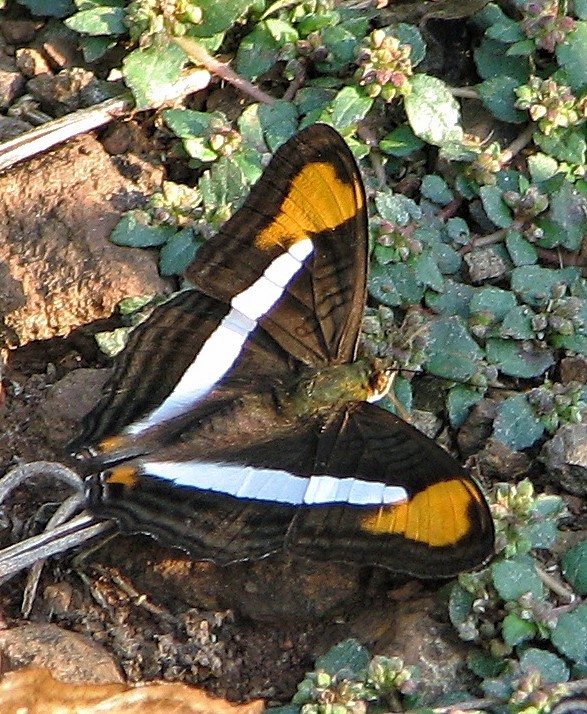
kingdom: Animalia
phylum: Arthropoda
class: Insecta
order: Lepidoptera
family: Nymphalidae
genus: Limenitis
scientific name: Limenitis epizygis
